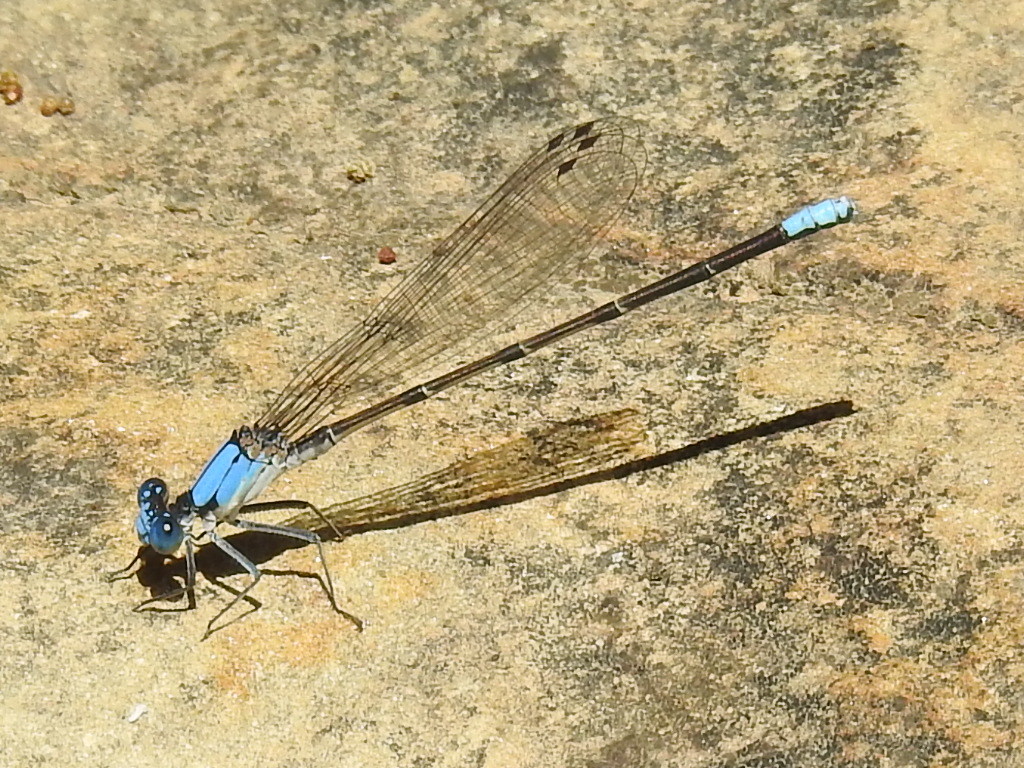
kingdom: Animalia
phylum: Arthropoda
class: Insecta
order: Odonata
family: Coenagrionidae
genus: Argia
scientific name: Argia apicalis
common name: Blue-fronted dancer
